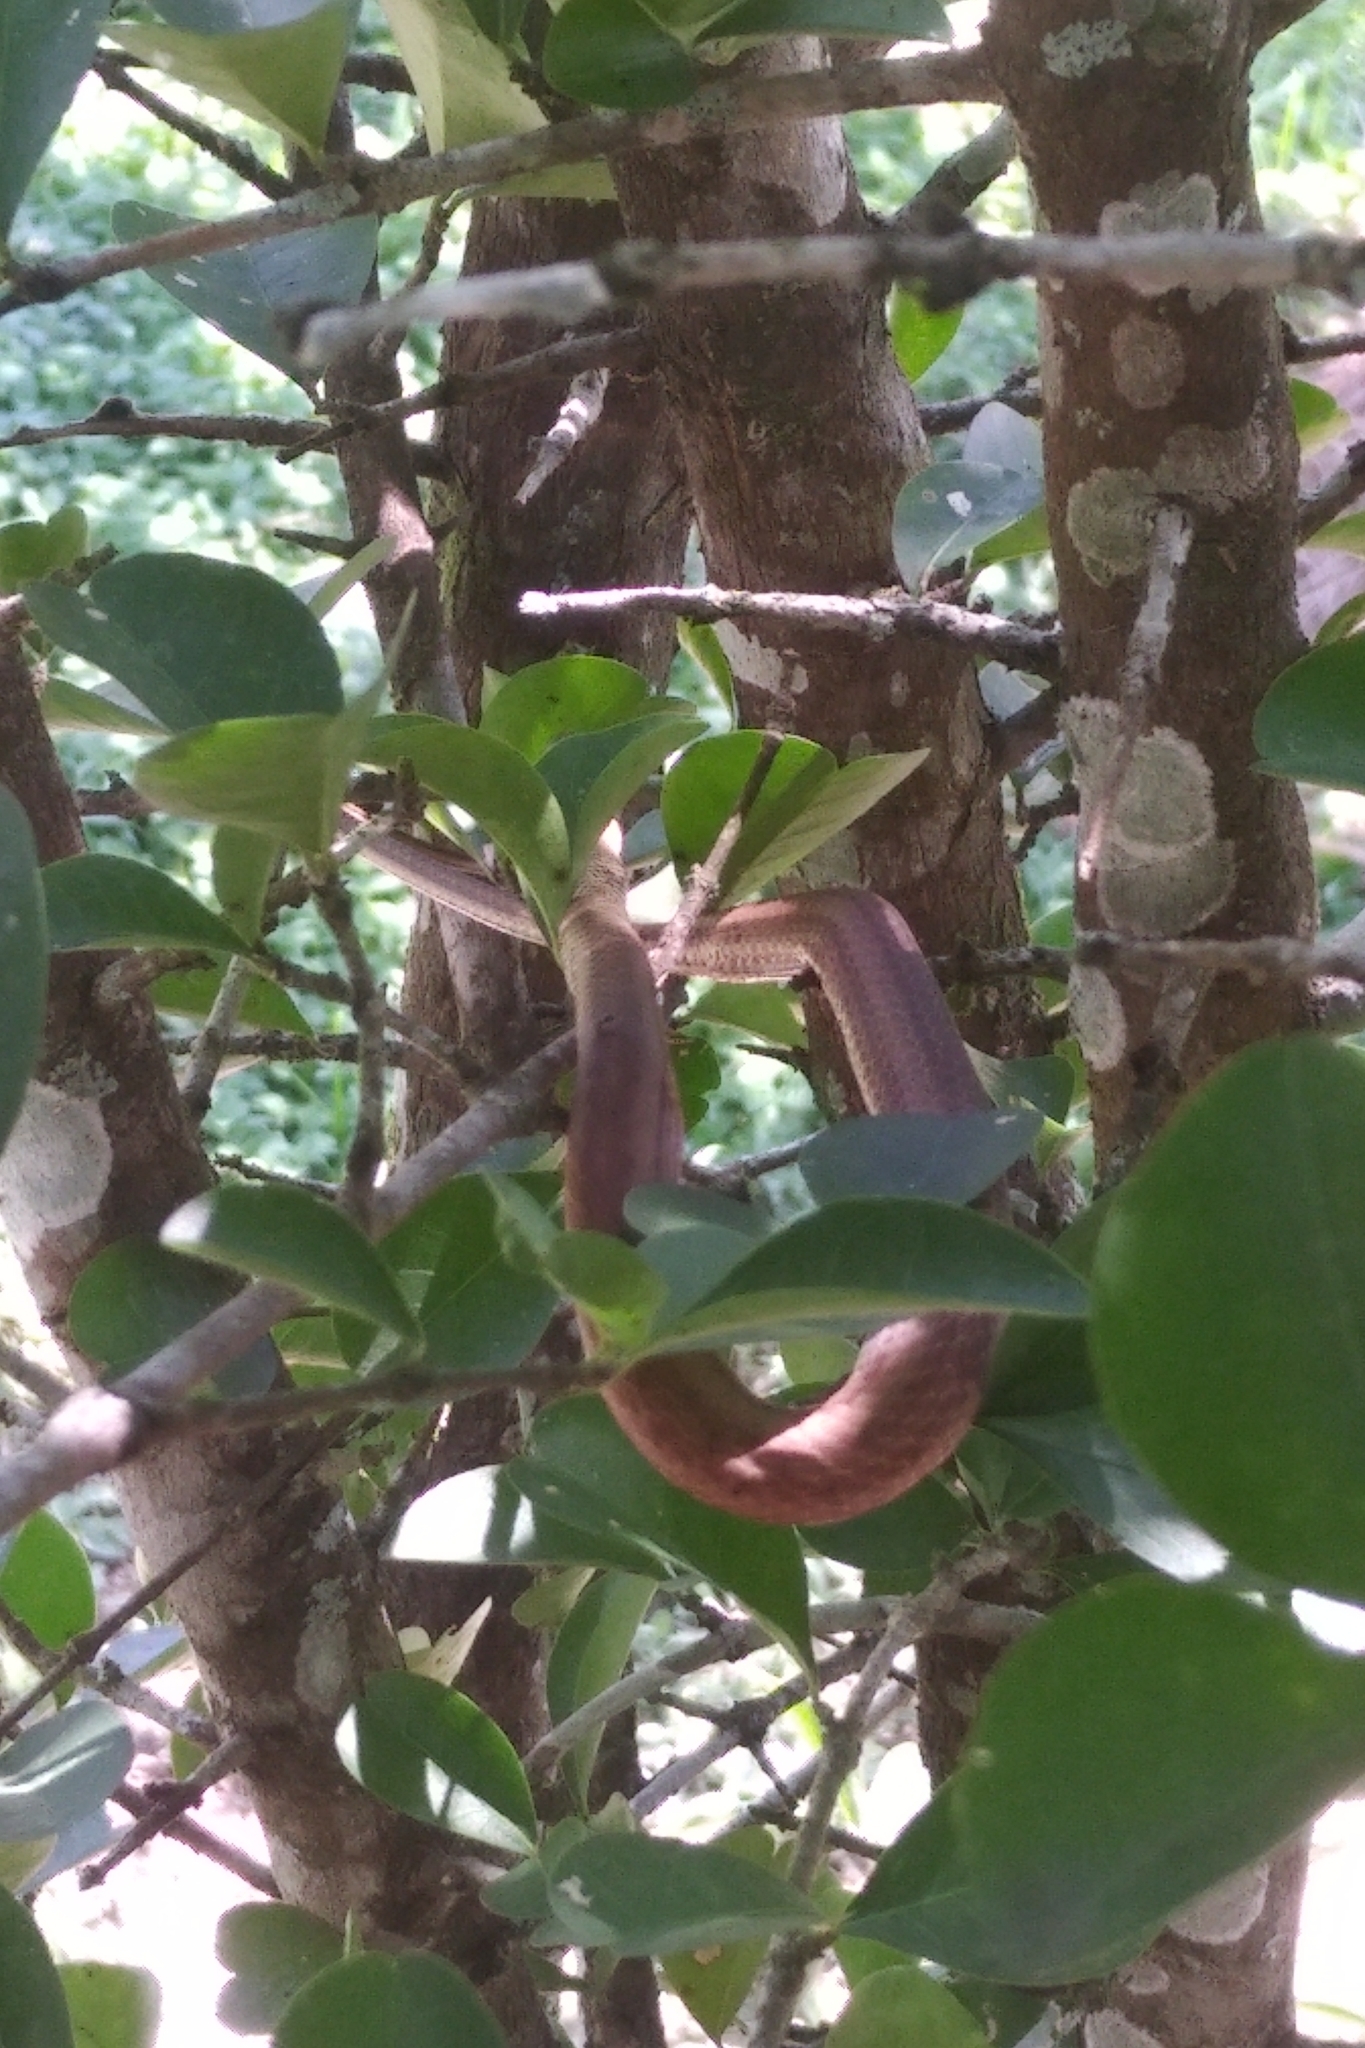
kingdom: Animalia
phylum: Chordata
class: Squamata
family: Colubridae
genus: Thamnodynastes
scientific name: Thamnodynastes pallidus
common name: Amazon coastal house snake
